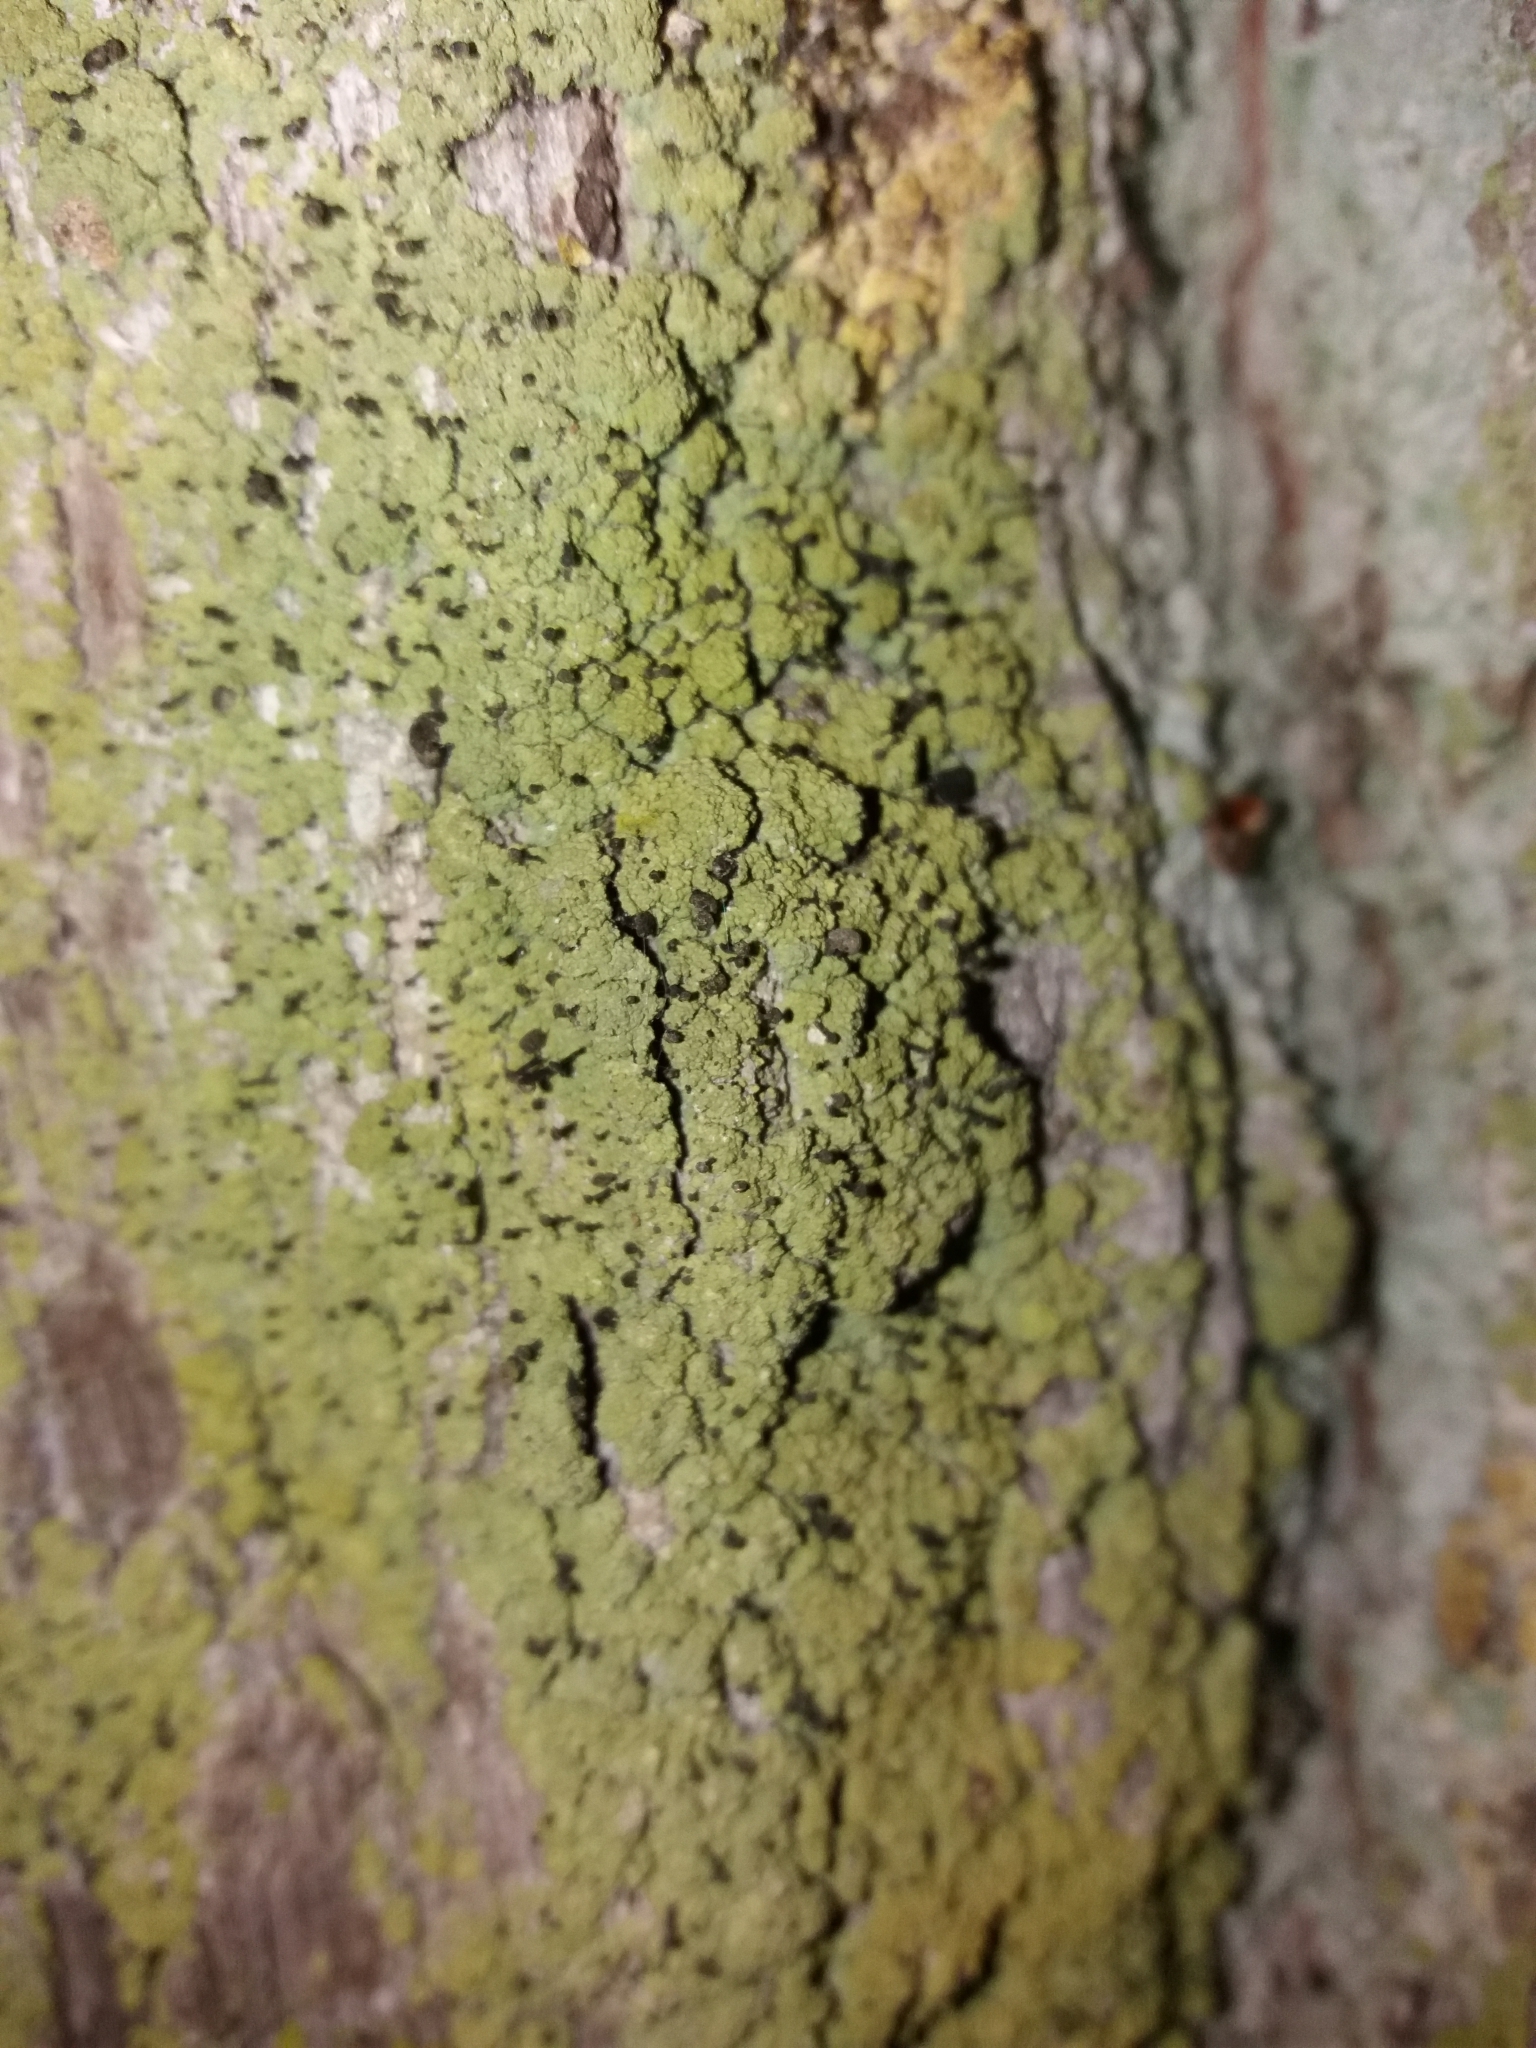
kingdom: Fungi
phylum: Ascomycota
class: Lecanoromycetes
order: Caliciales
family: Caliciaceae
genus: Calicium
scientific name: Calicium viride
